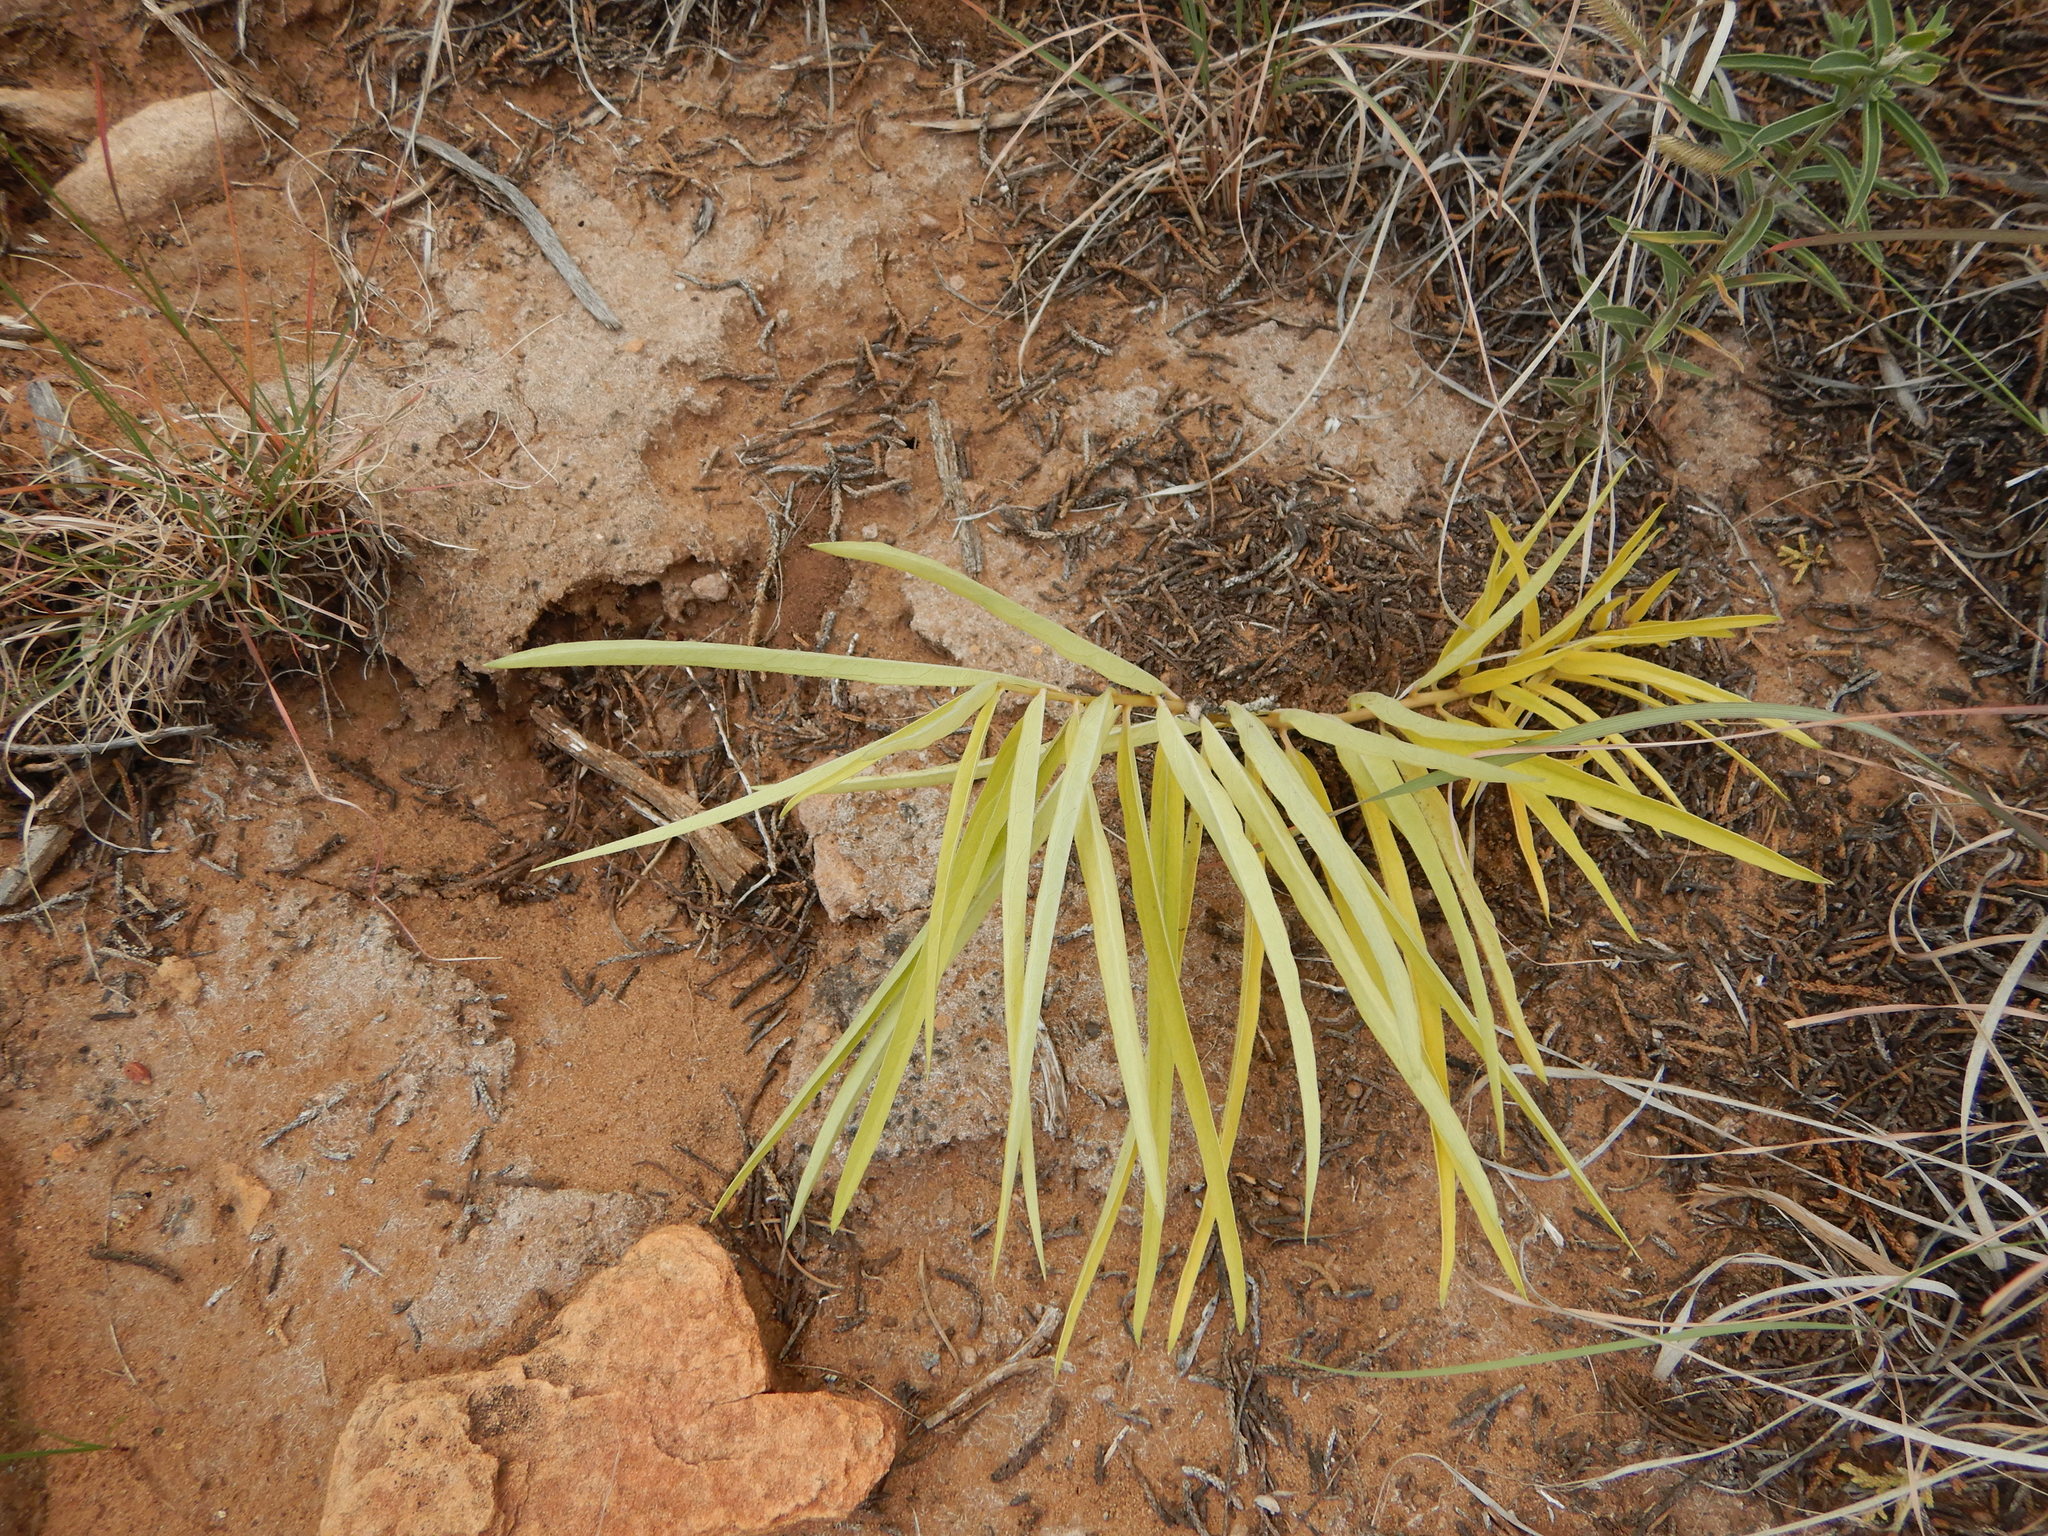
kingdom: Plantae
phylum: Tracheophyta
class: Magnoliopsida
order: Gentianales
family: Apocynaceae
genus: Asclepias
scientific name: Asclepias asperula
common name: Antelope horns
